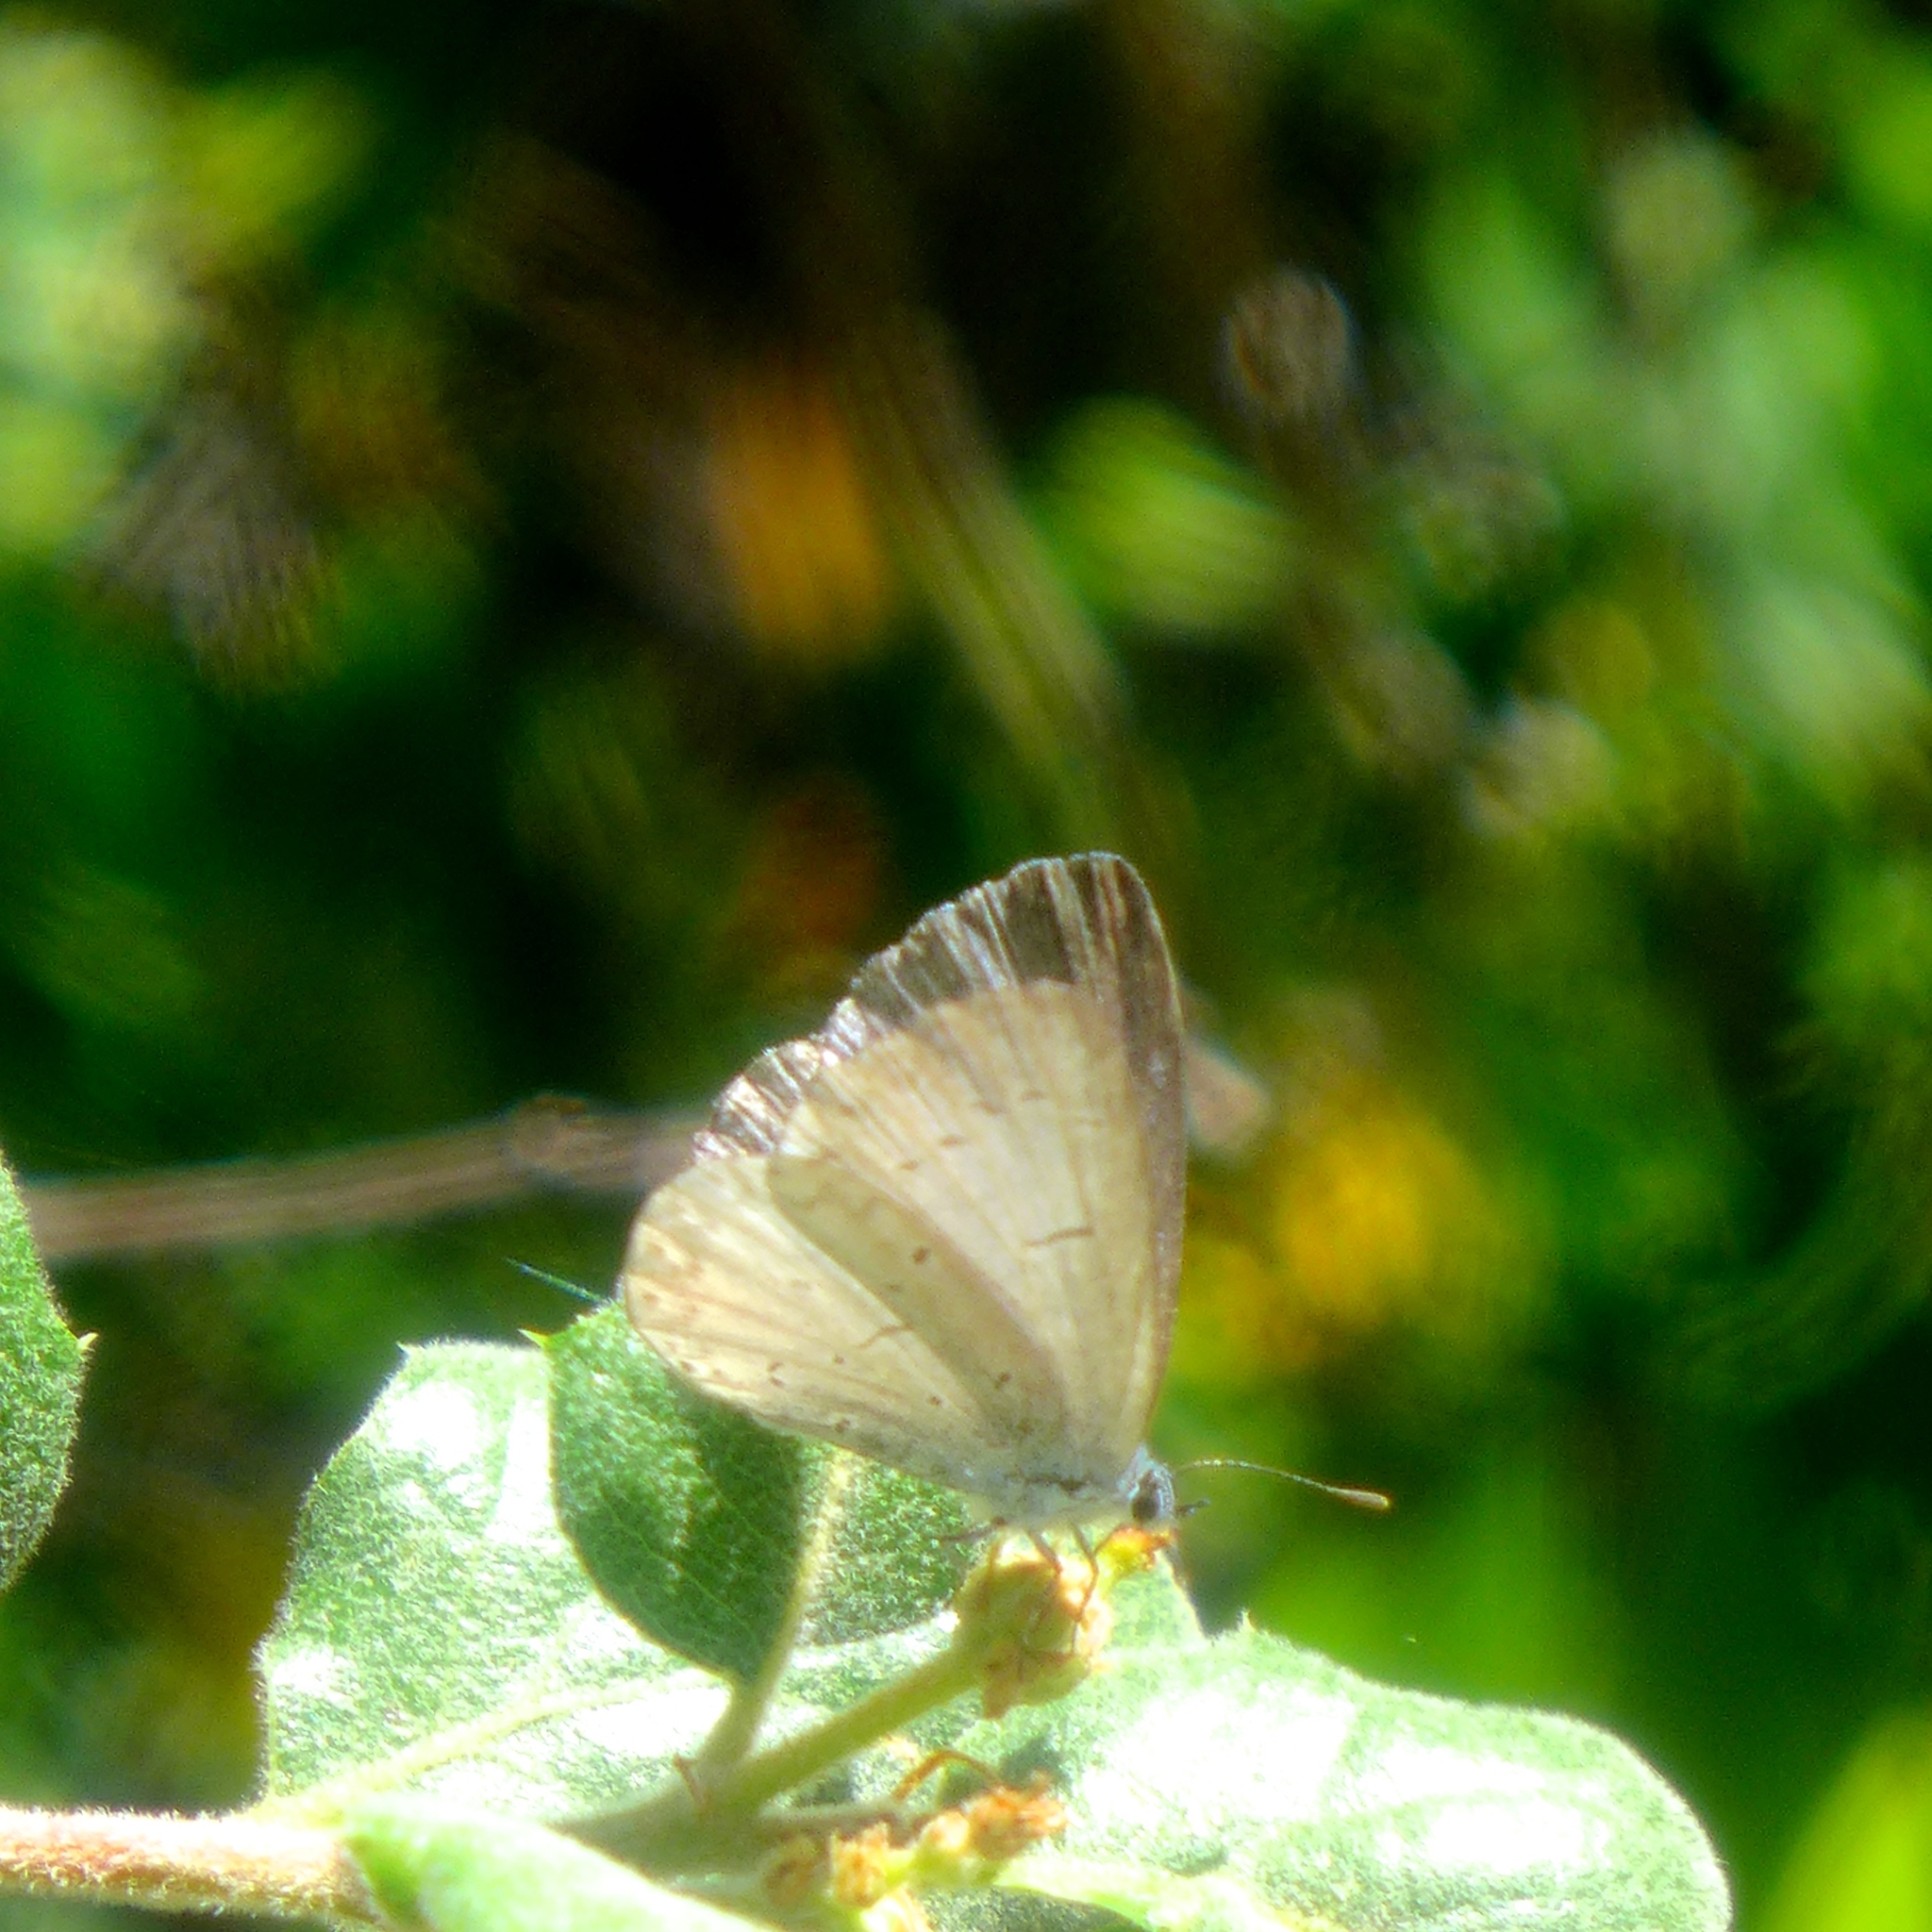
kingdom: Animalia
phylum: Arthropoda
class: Insecta
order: Lepidoptera
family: Lycaenidae
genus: Celastrina
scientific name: Celastrina ladon
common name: Spring azure
